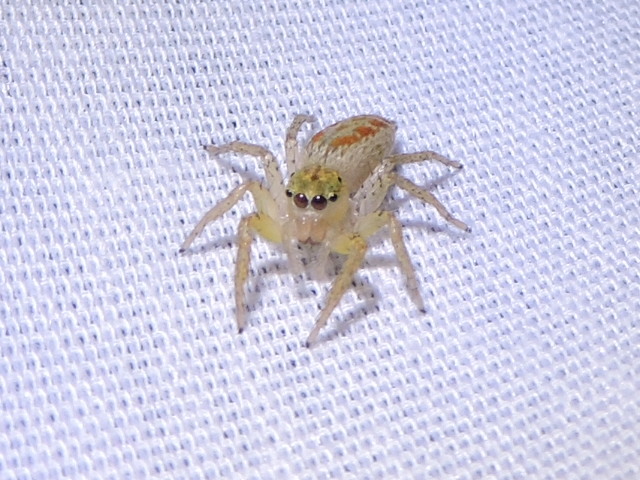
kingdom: Animalia
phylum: Arthropoda
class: Arachnida
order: Araneae
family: Salticidae
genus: Maevia
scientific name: Maevia inclemens
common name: Dimorphic jumper
